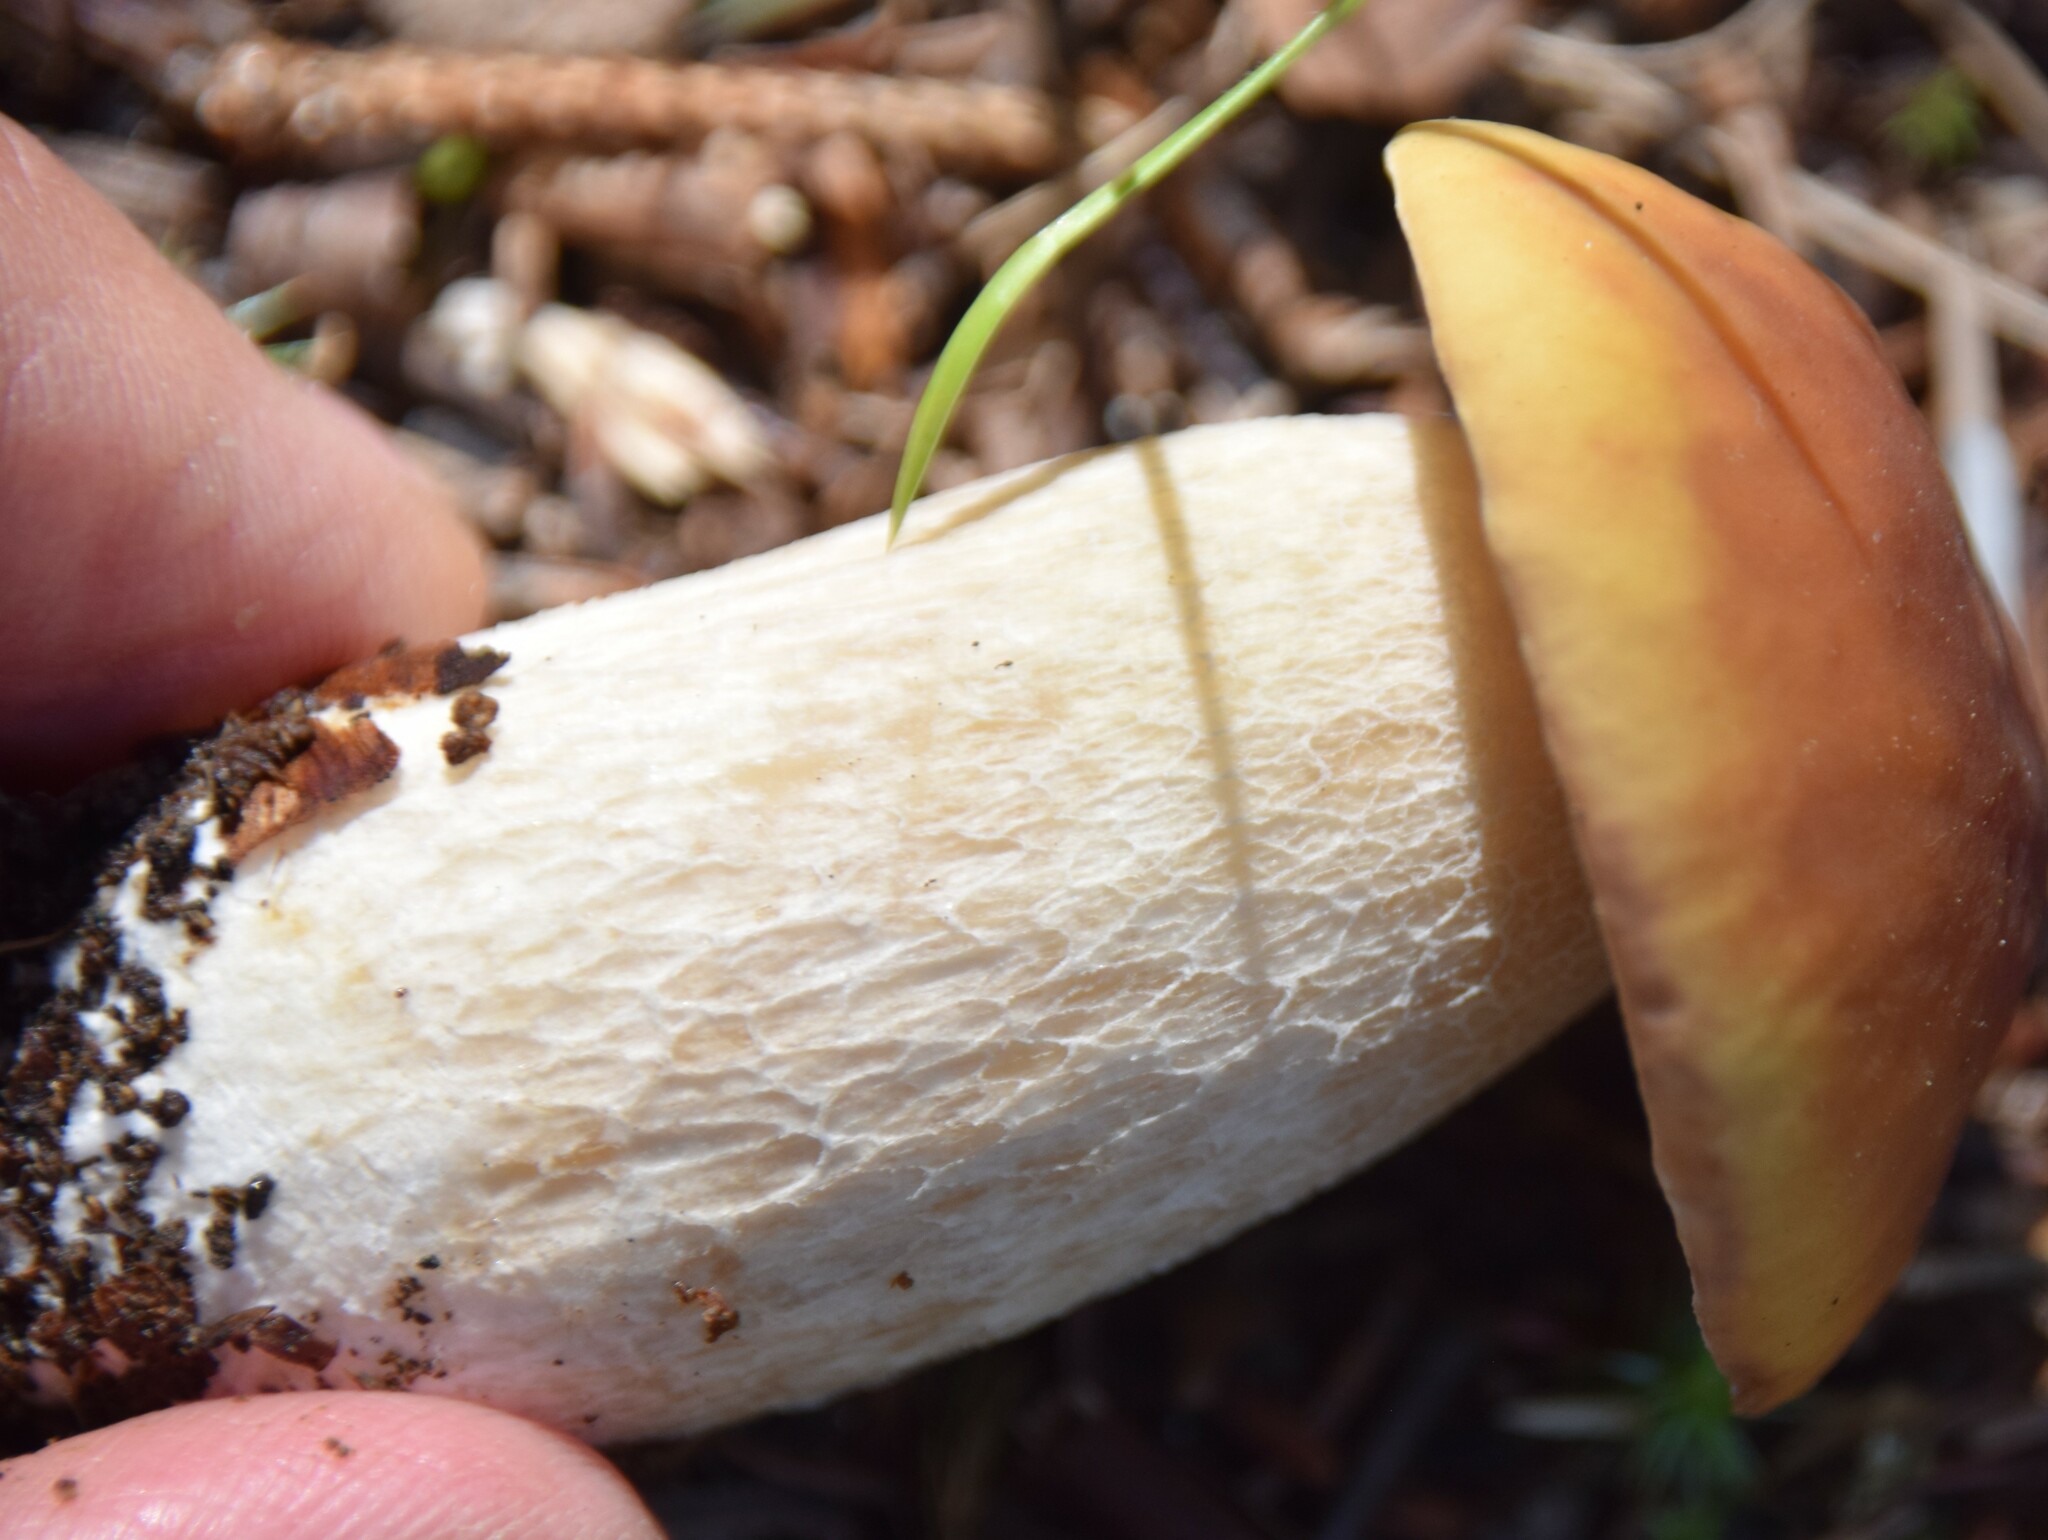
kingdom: Fungi
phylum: Basidiomycota
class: Agaricomycetes
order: Boletales
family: Boletaceae
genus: Boletus
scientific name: Boletus chippewaensis
